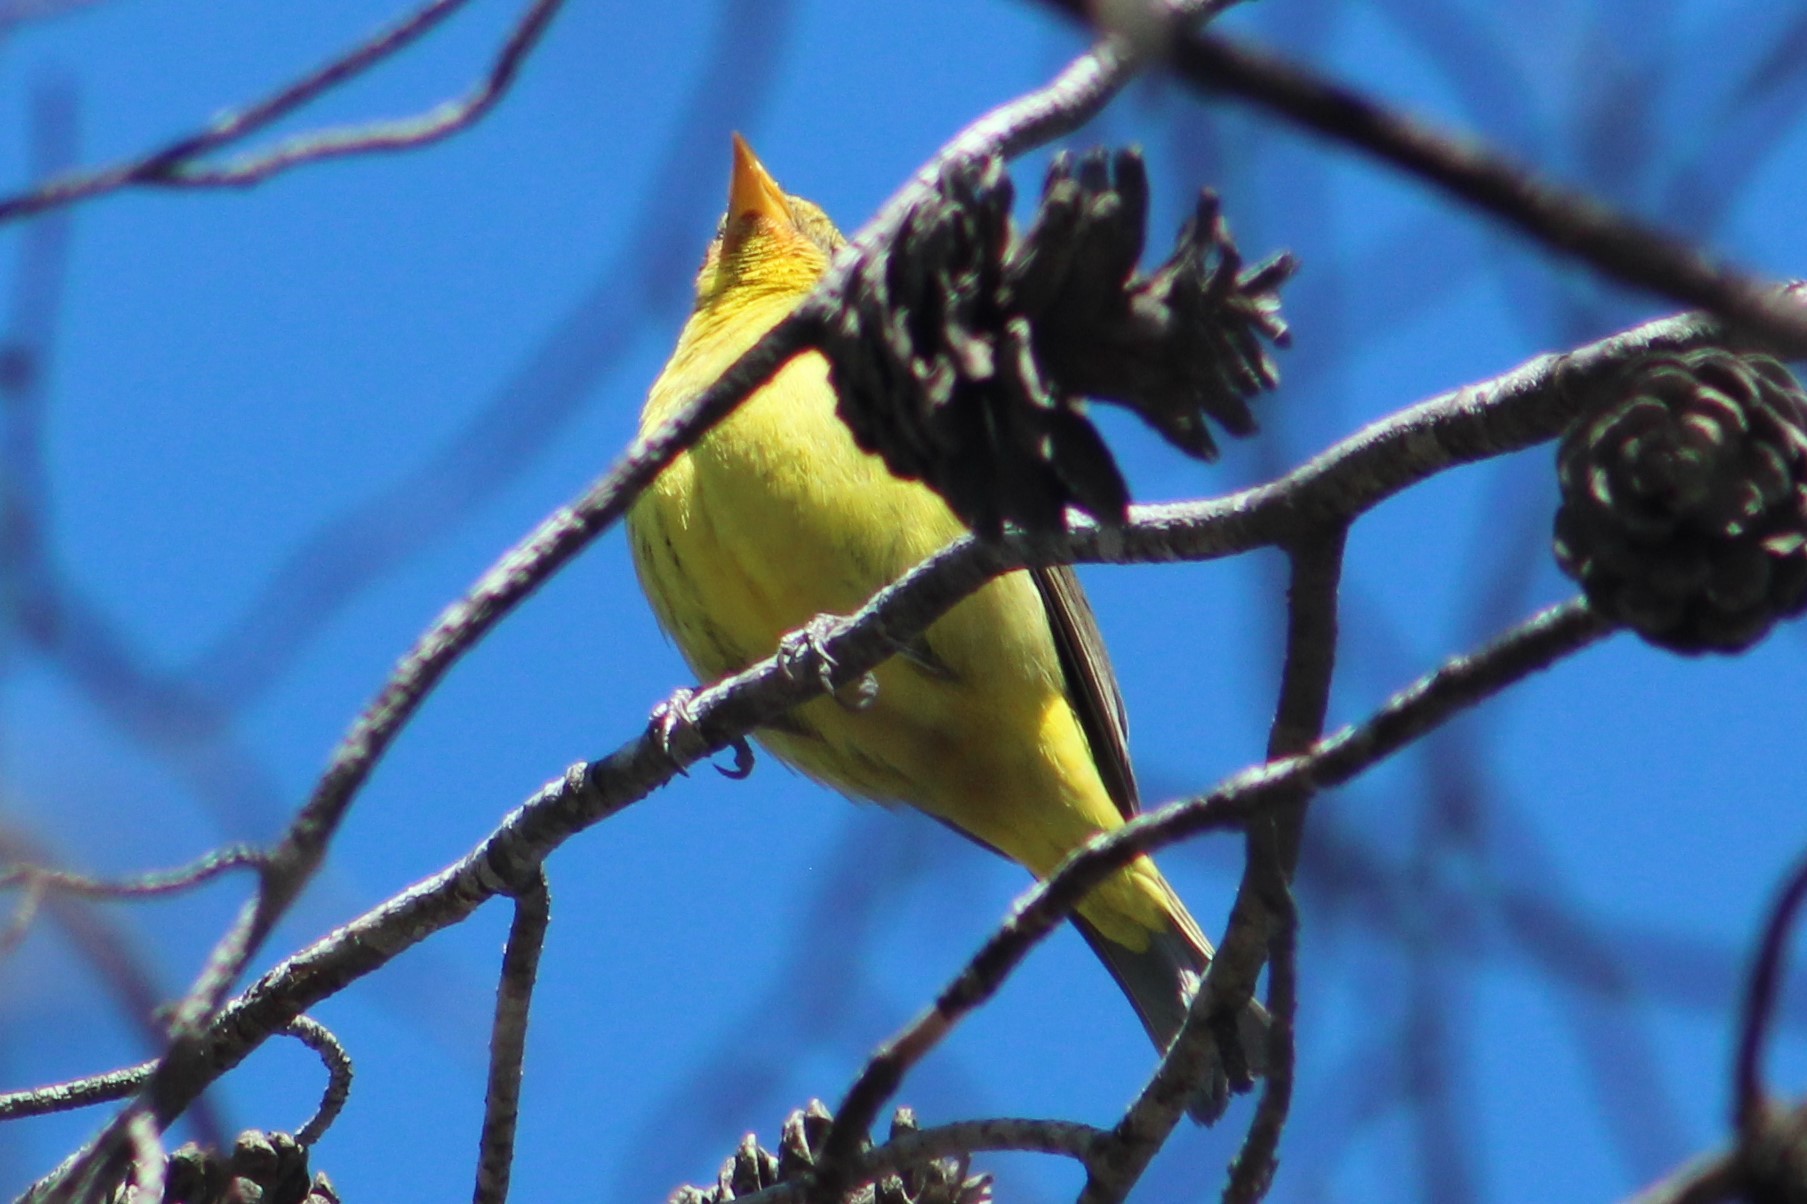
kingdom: Animalia
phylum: Chordata
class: Aves
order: Passeriformes
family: Cardinalidae
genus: Piranga
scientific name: Piranga ludoviciana
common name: Western tanager
